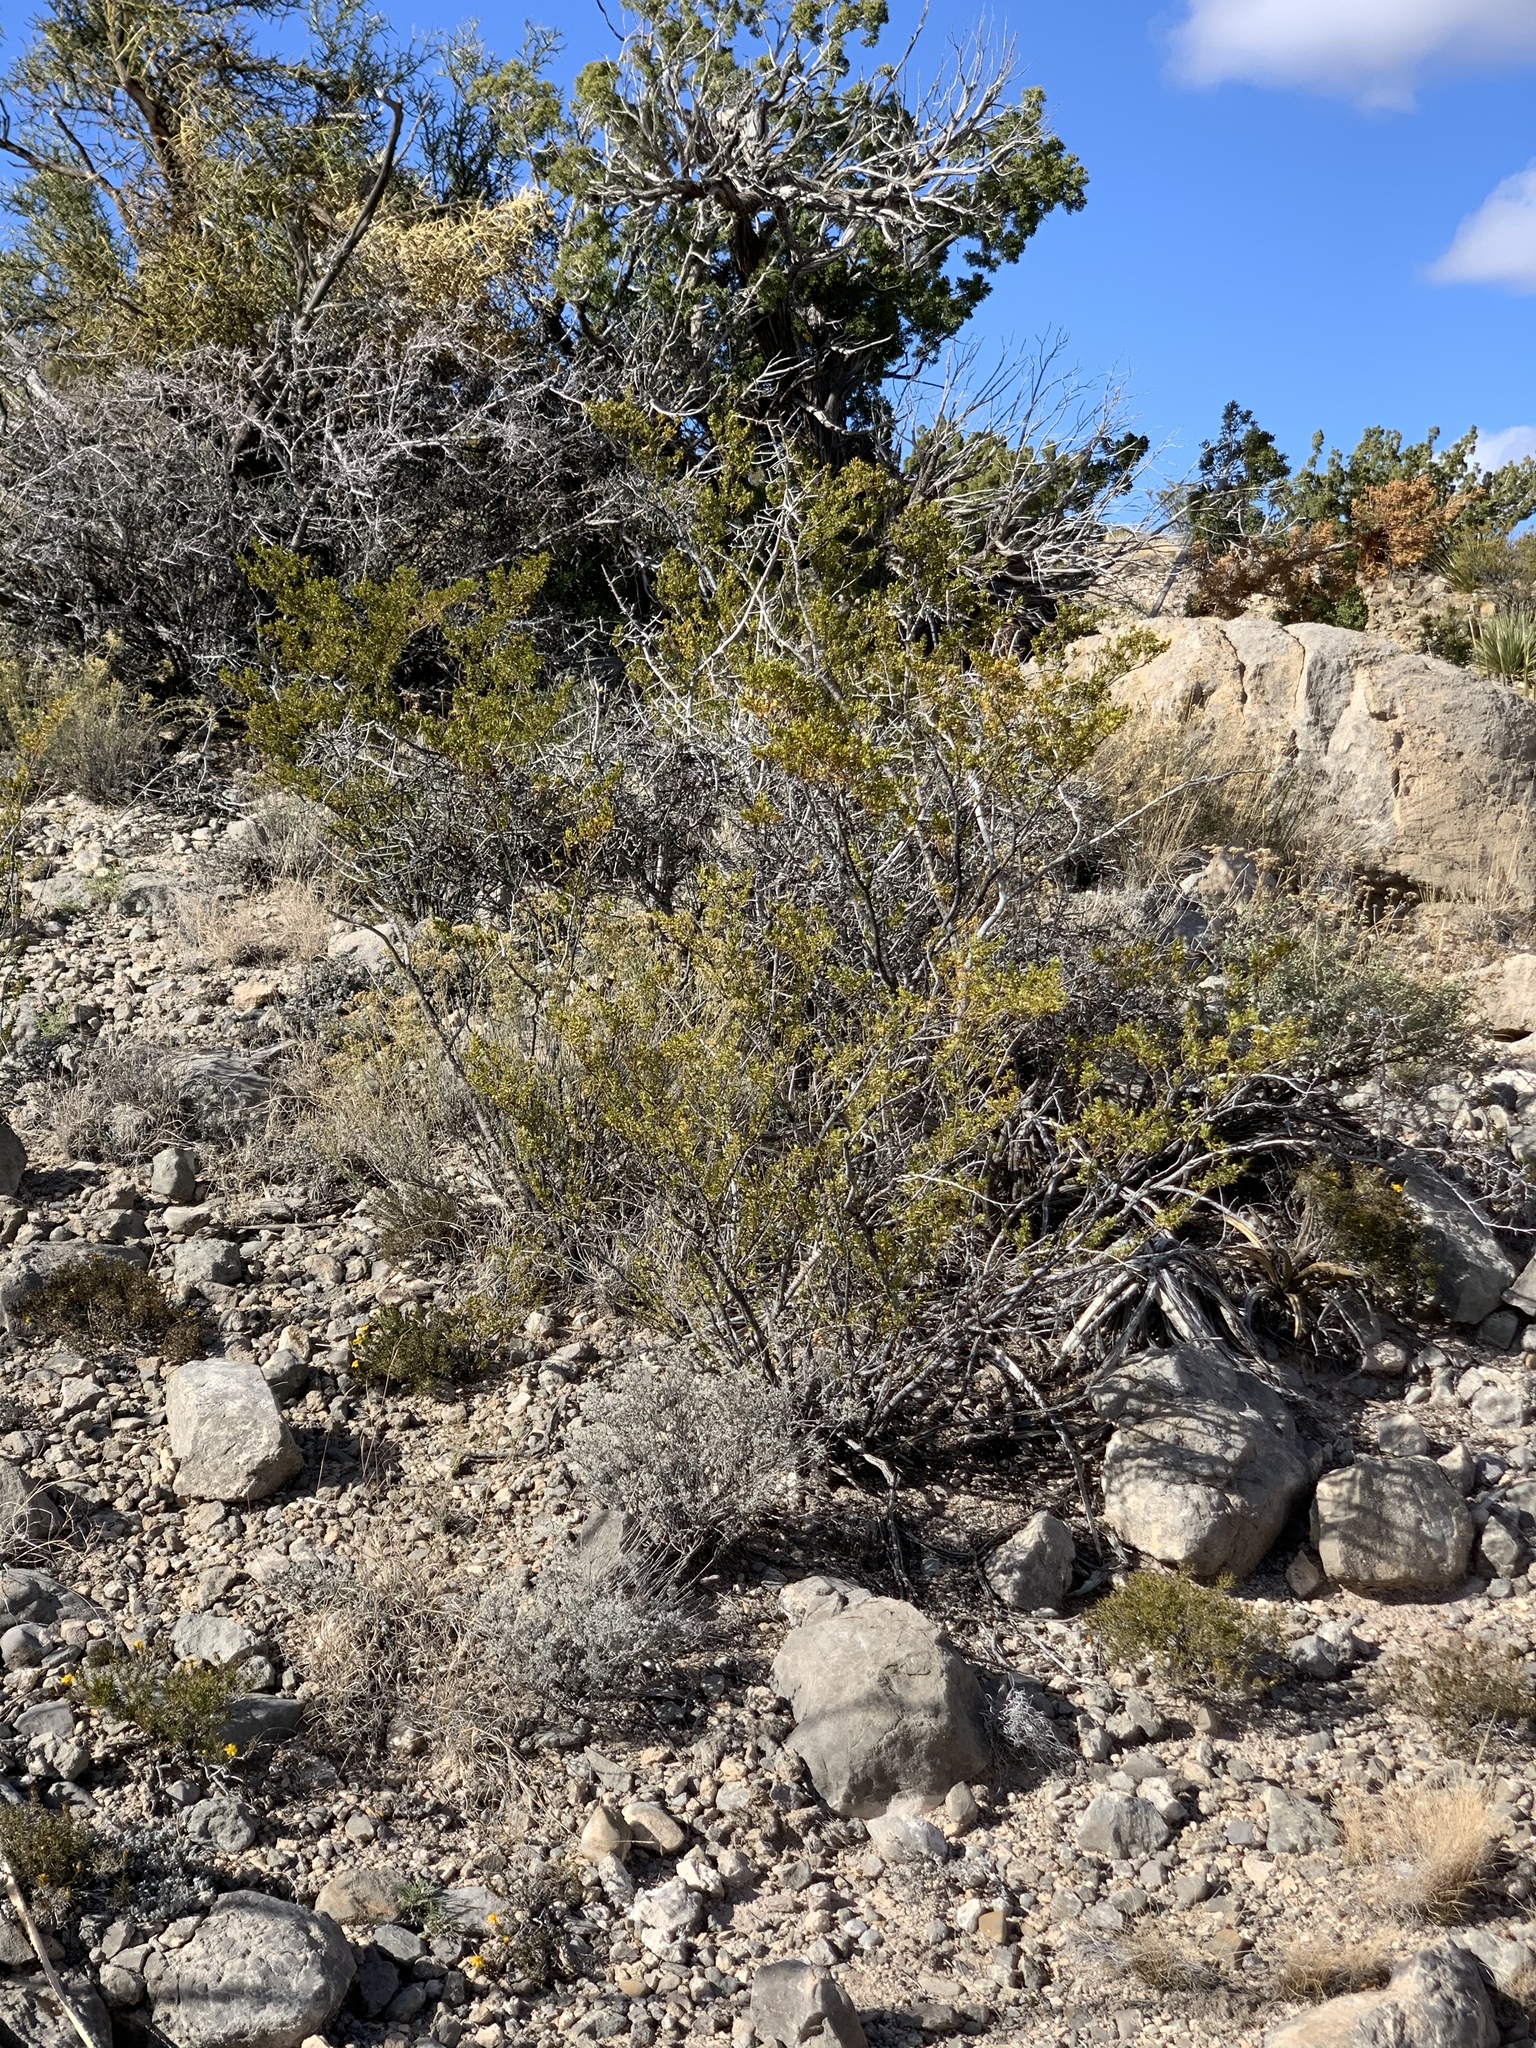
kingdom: Plantae
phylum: Tracheophyta
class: Magnoliopsida
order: Zygophyllales
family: Zygophyllaceae
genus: Larrea
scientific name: Larrea tridentata
